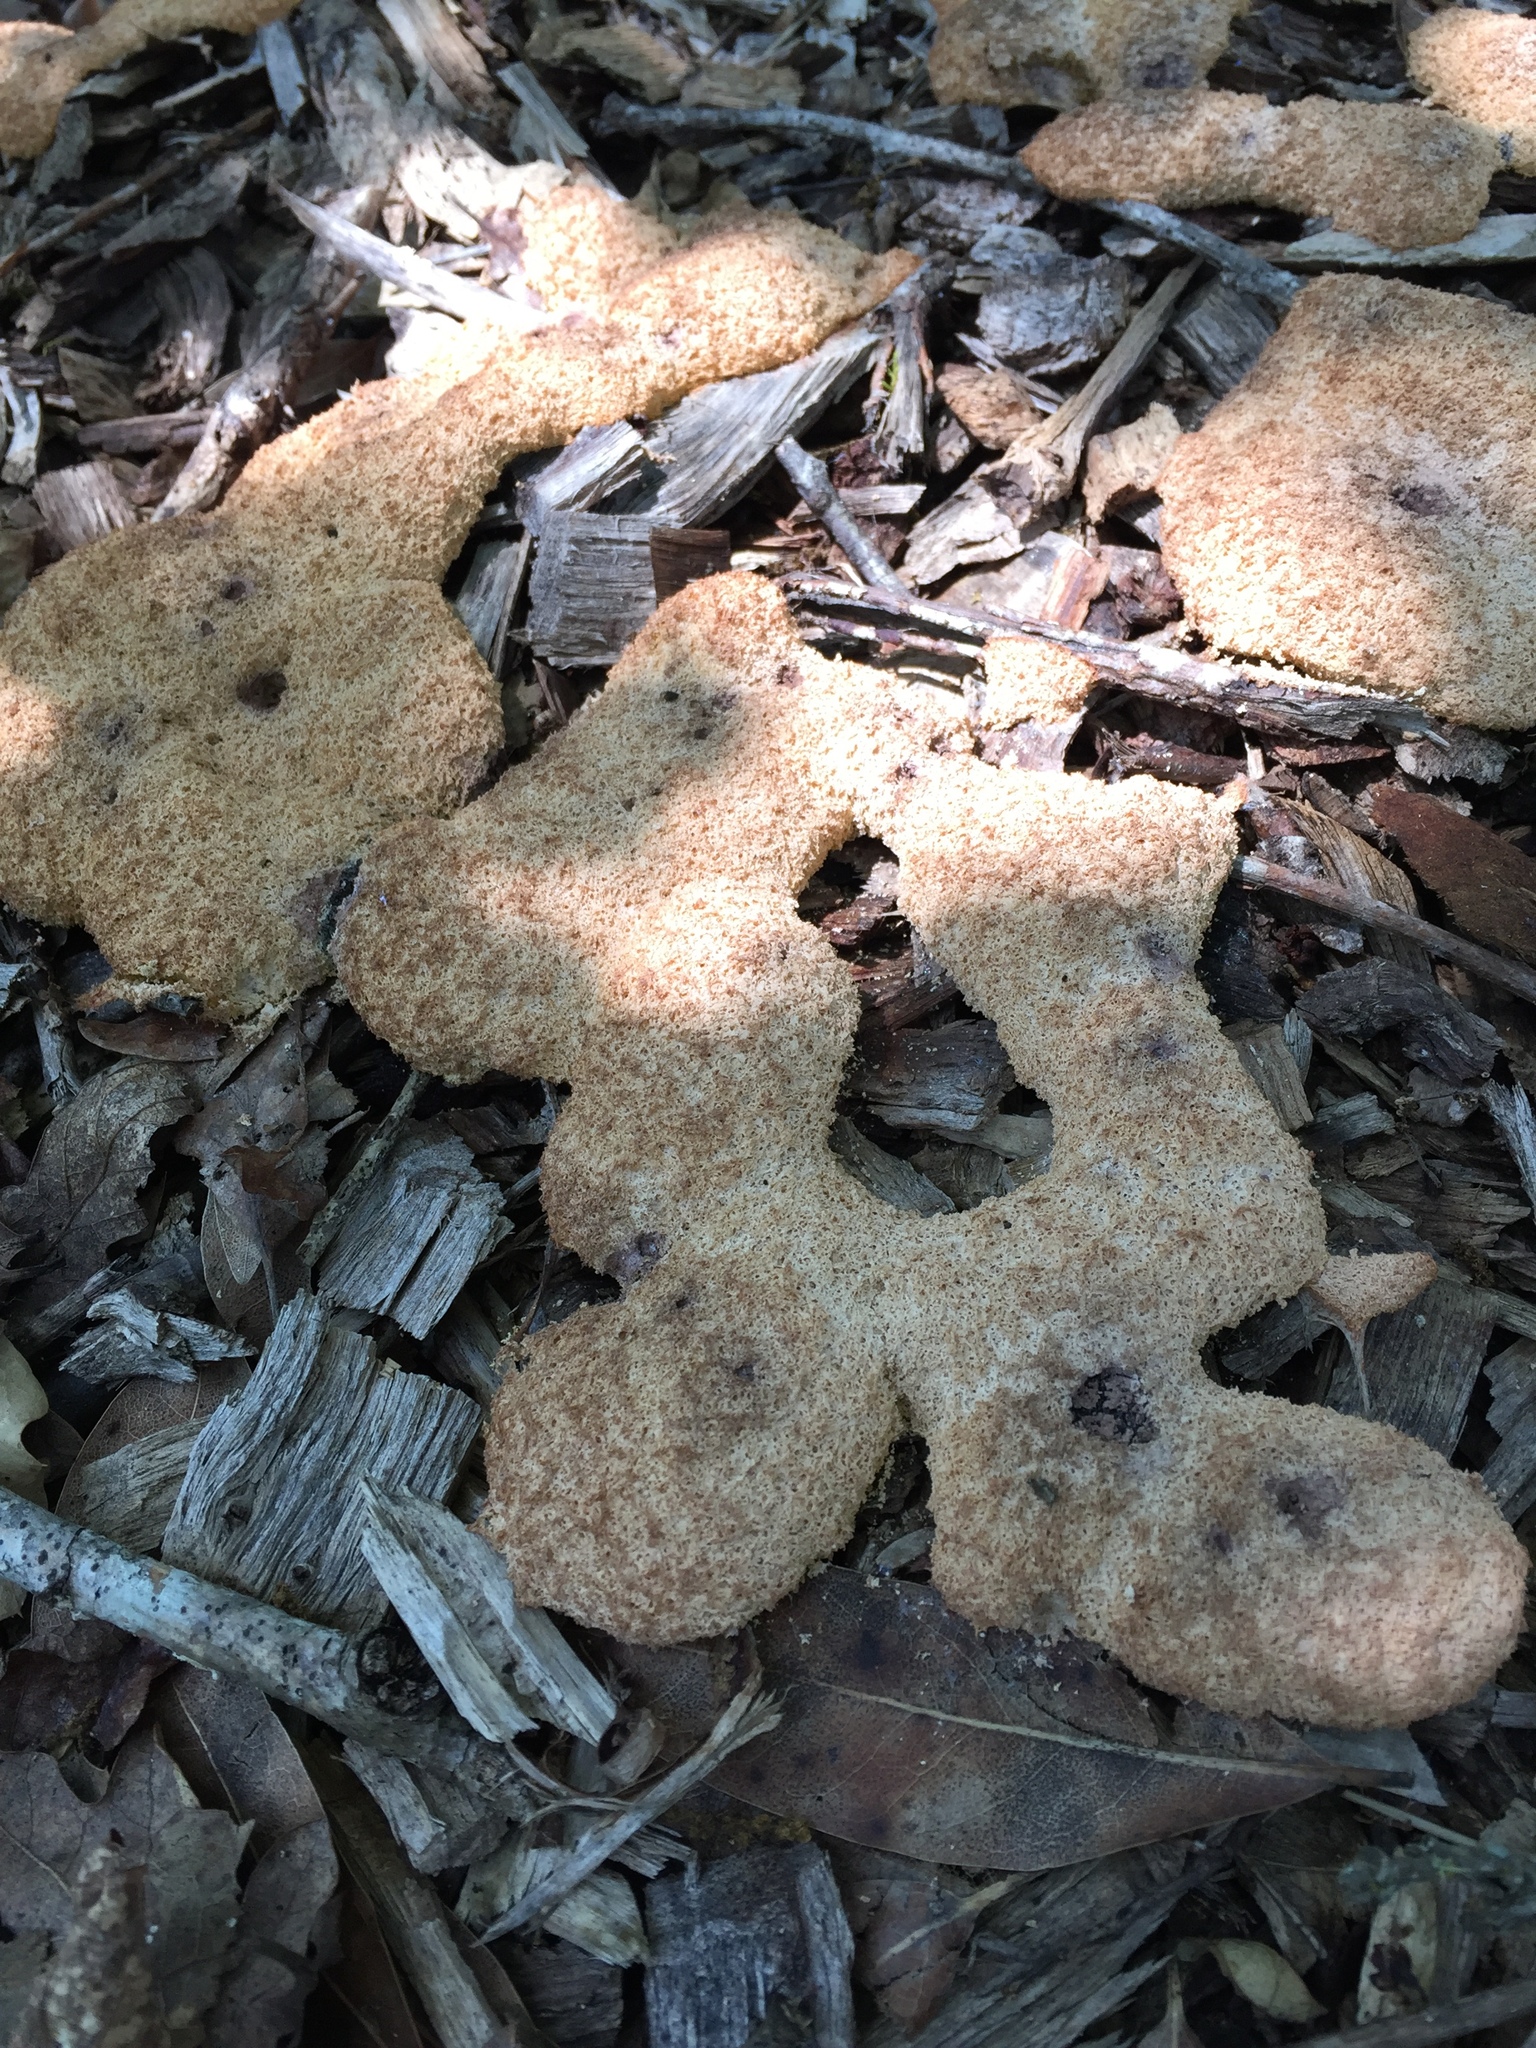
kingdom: Protozoa
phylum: Mycetozoa
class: Myxomycetes
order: Physarales
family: Physaraceae
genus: Fuligo
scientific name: Fuligo septica
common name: Dog vomit slime mold
